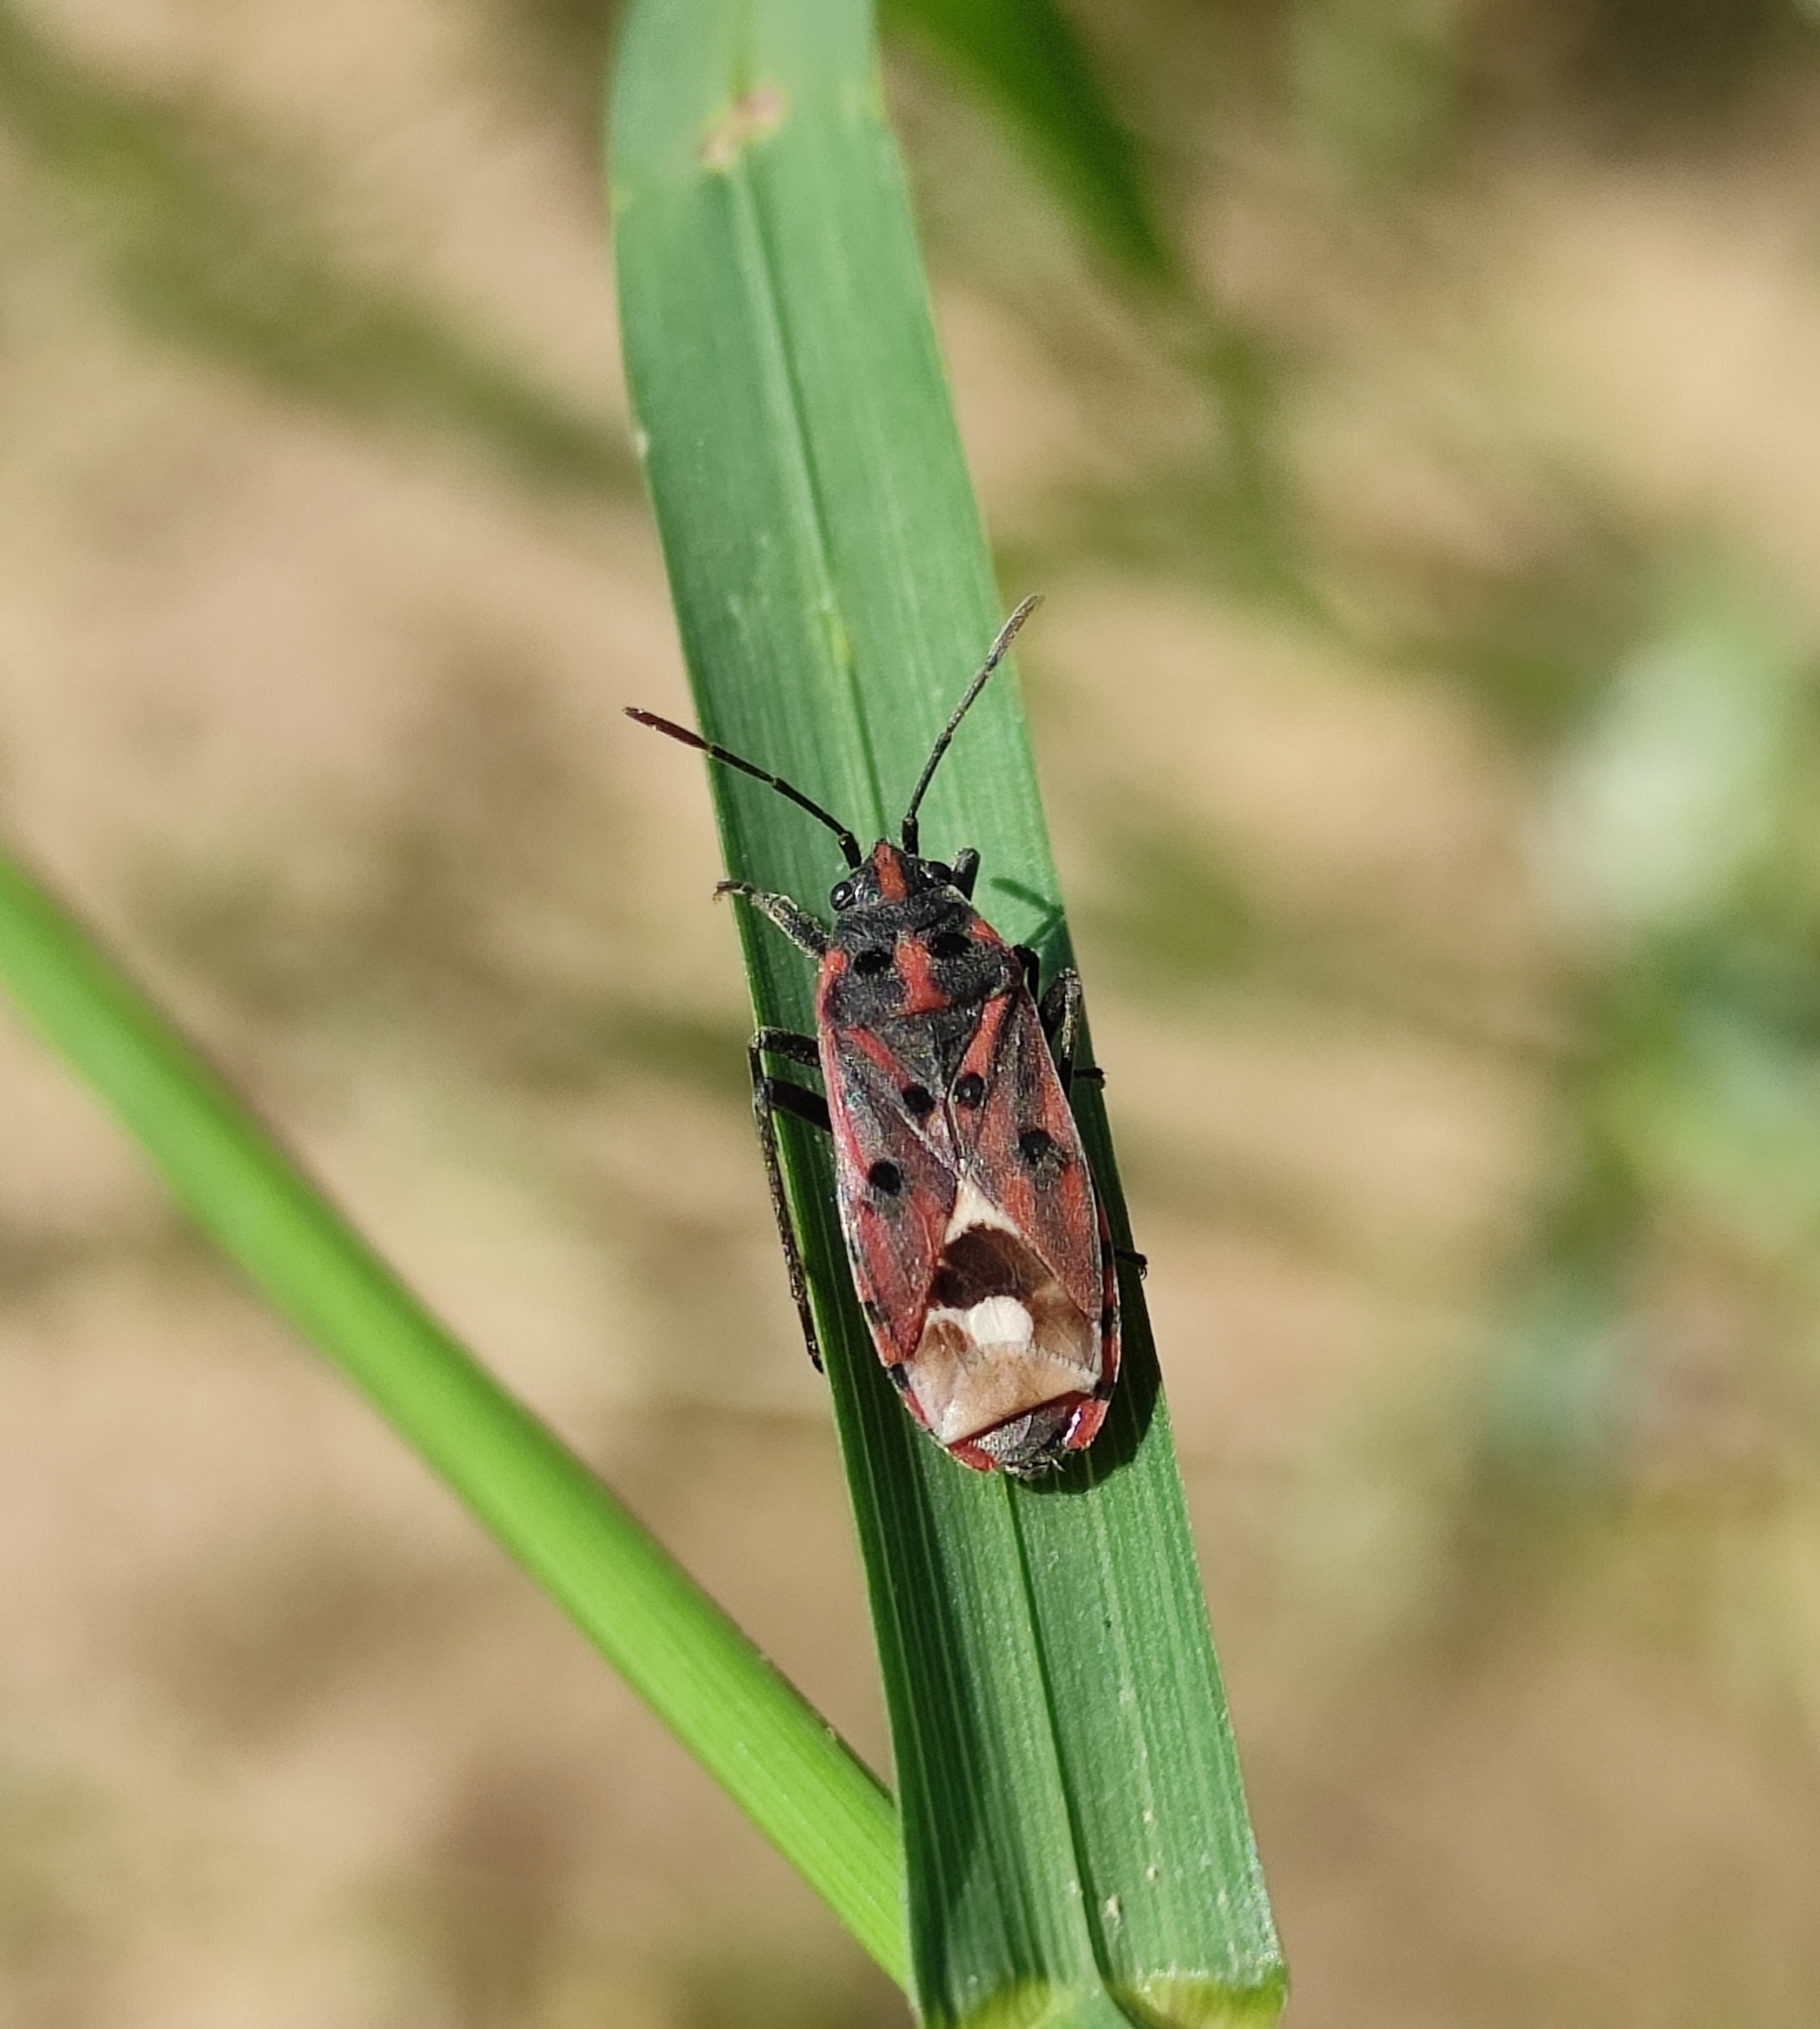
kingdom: Animalia
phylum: Arthropoda
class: Insecta
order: Hemiptera
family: Lygaeidae
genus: Lygaeus
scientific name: Lygaeus hanseni
